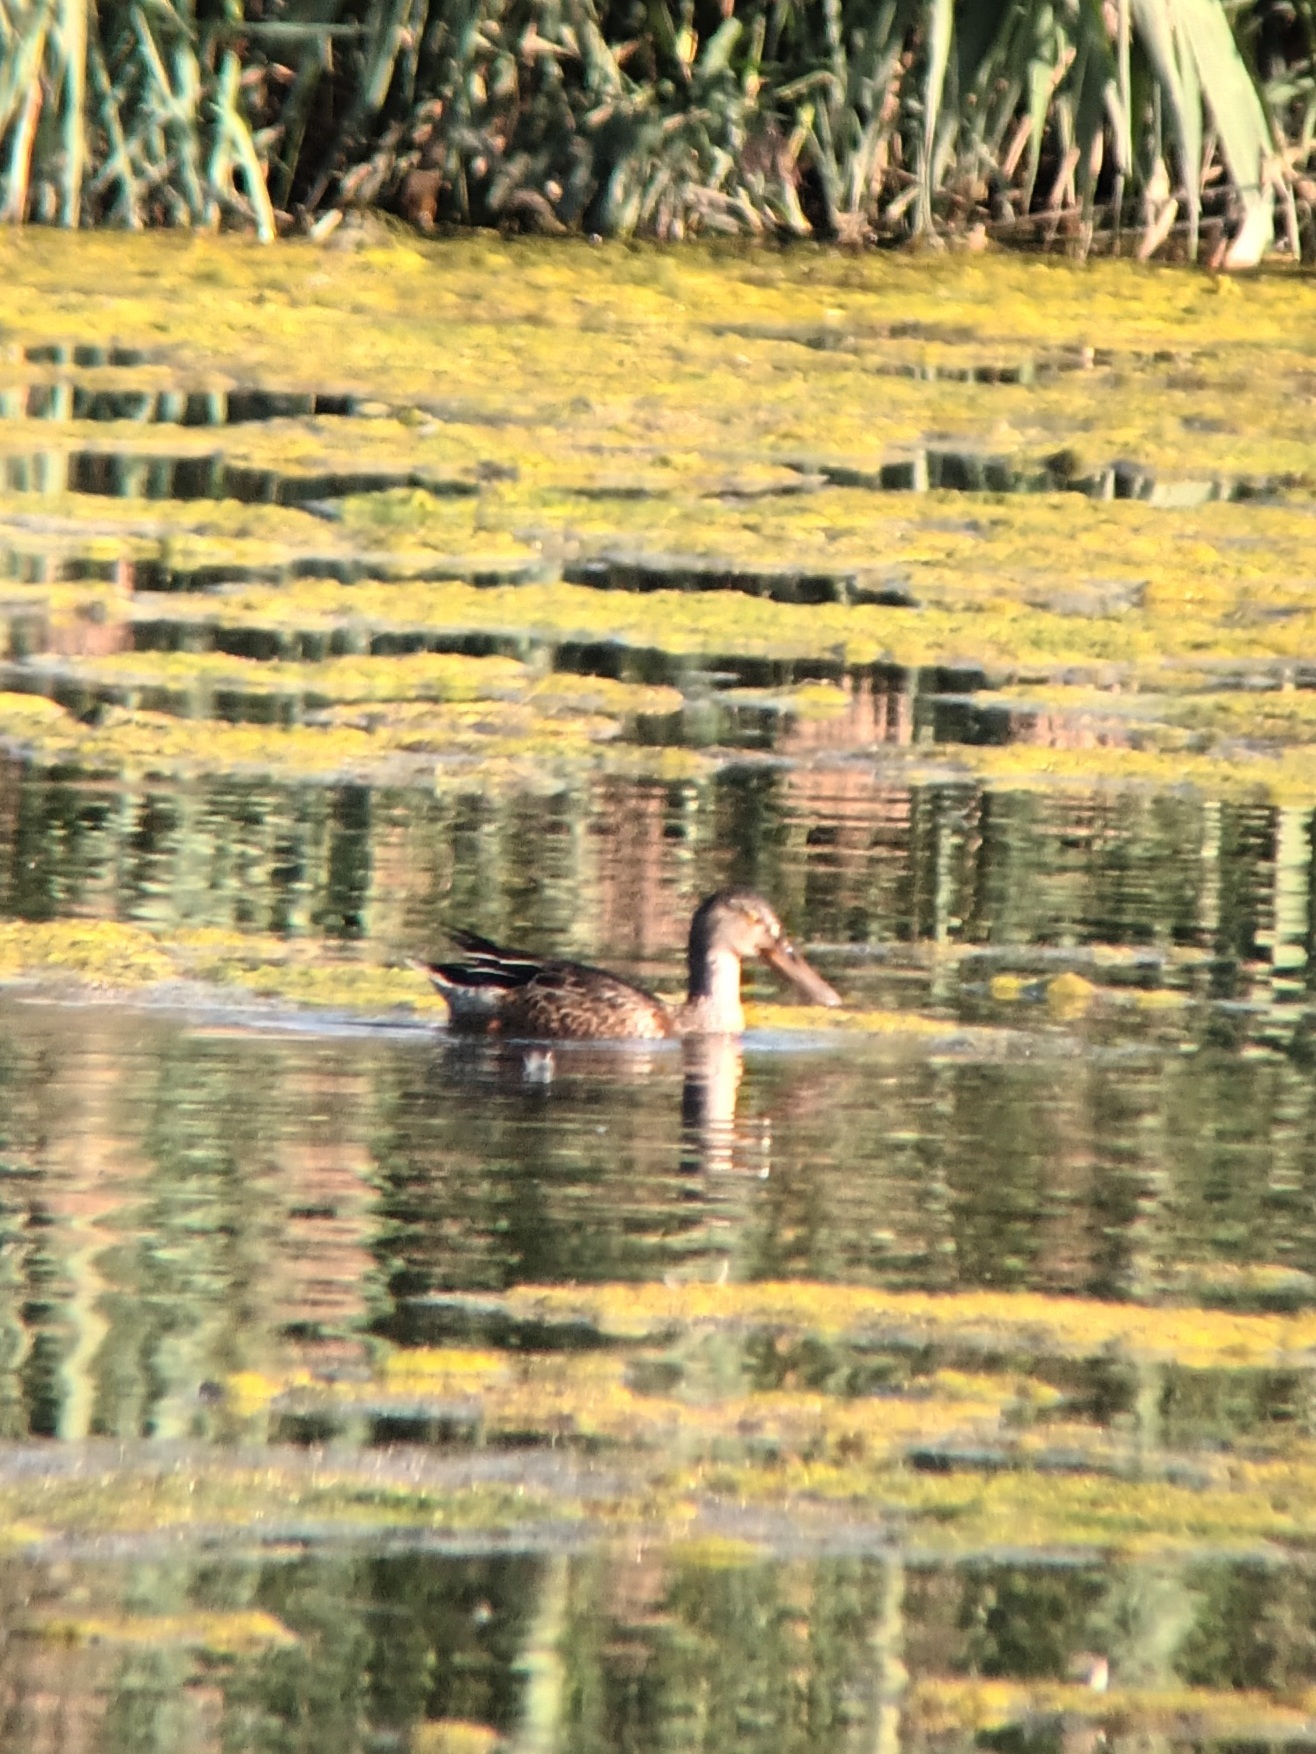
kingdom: Animalia
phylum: Chordata
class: Aves
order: Anseriformes
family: Anatidae
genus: Spatula
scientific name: Spatula clypeata
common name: Northern shoveler
